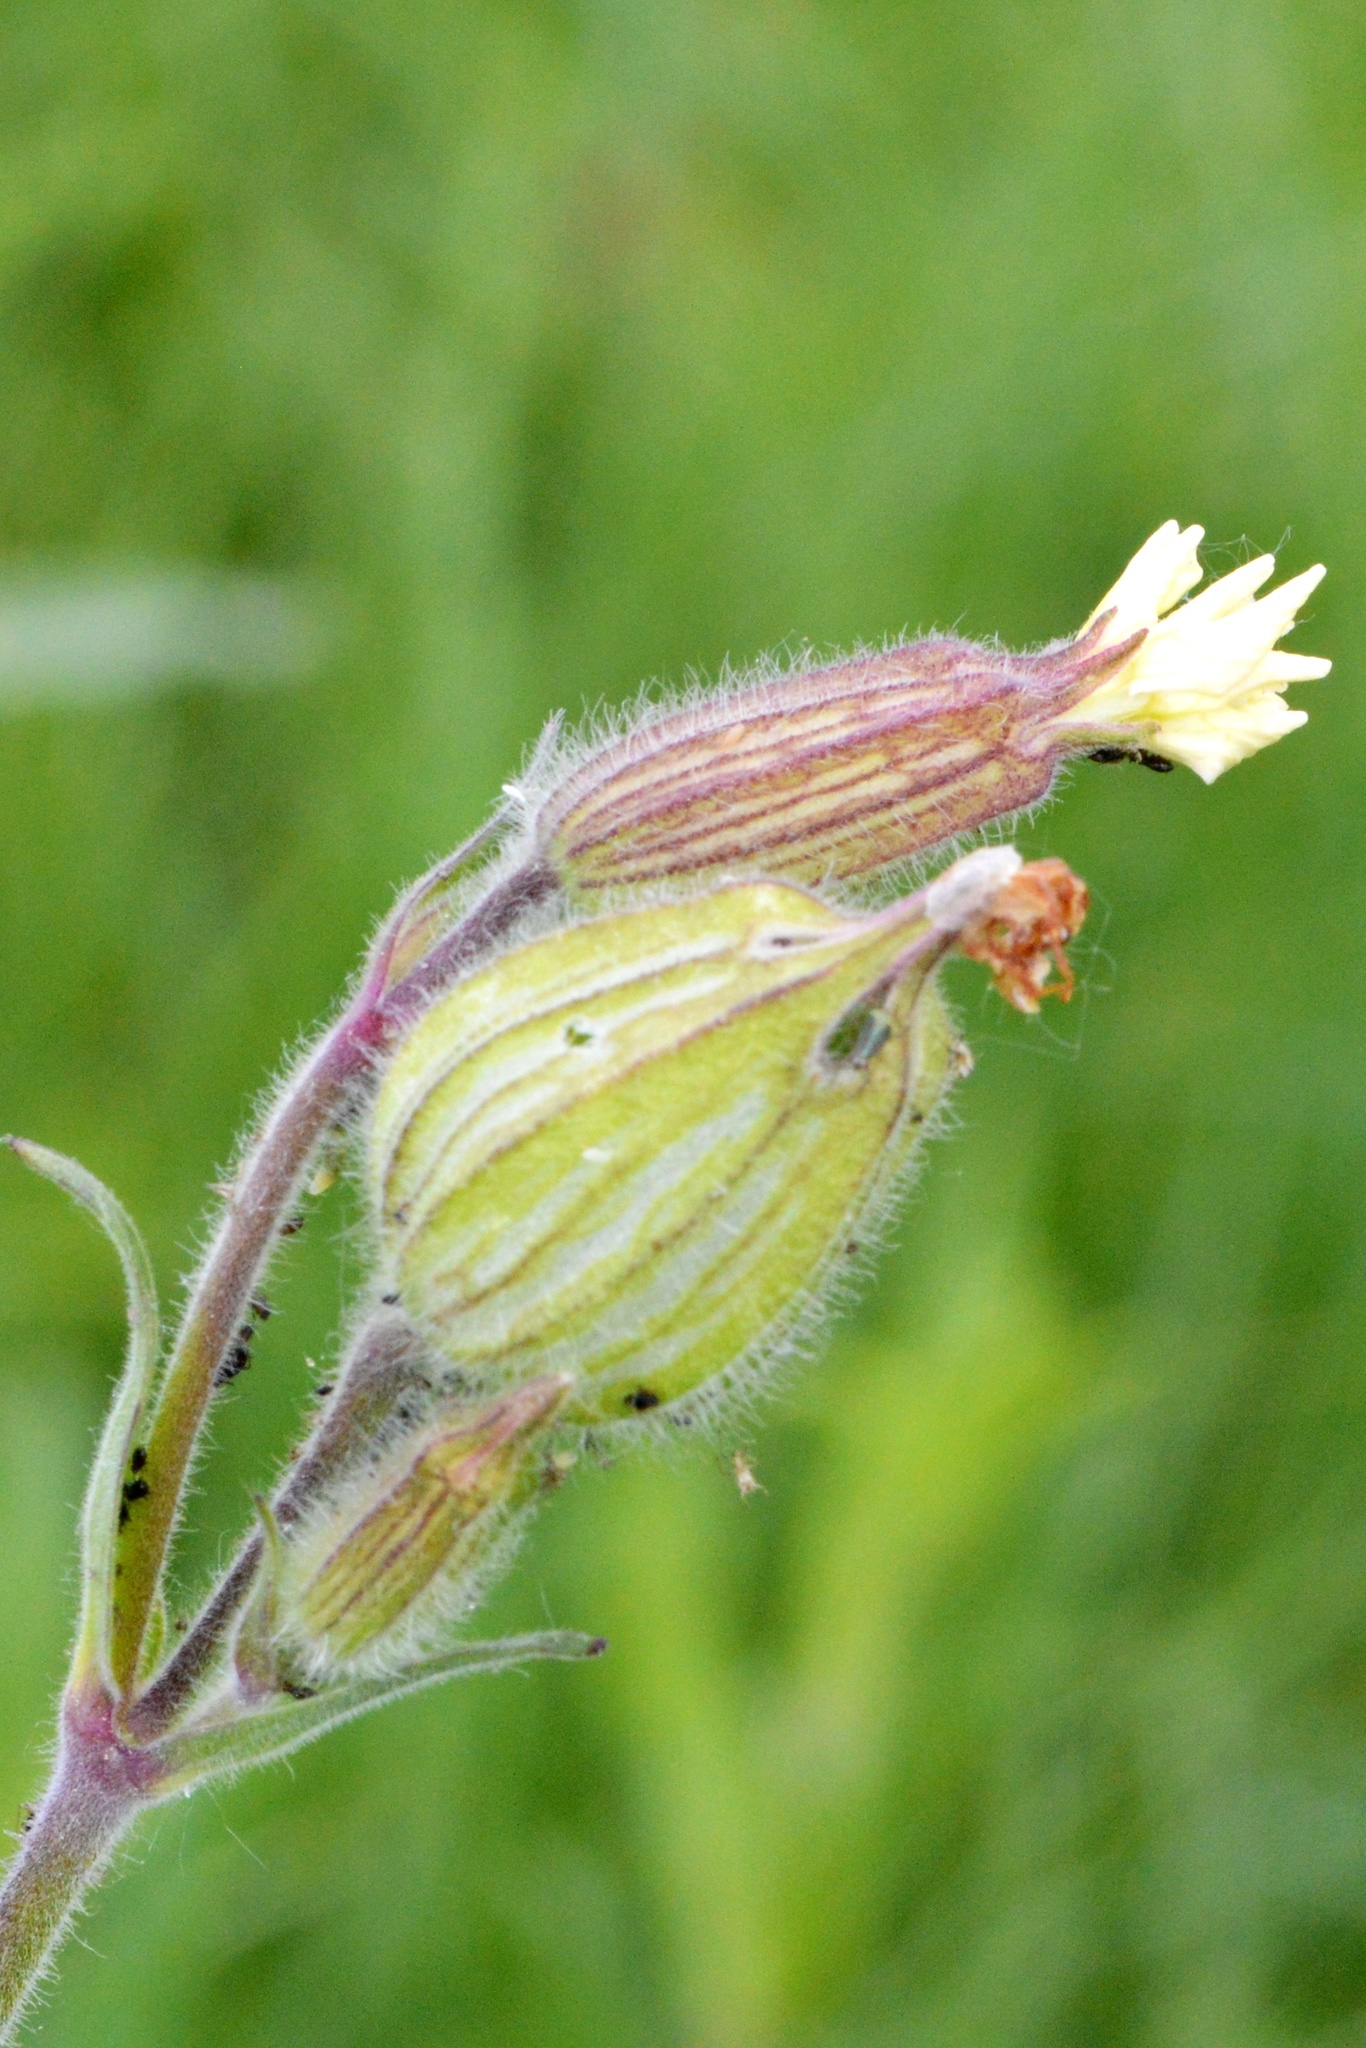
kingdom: Plantae
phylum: Tracheophyta
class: Magnoliopsida
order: Caryophyllales
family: Caryophyllaceae
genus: Silene
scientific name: Silene latifolia
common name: White campion
